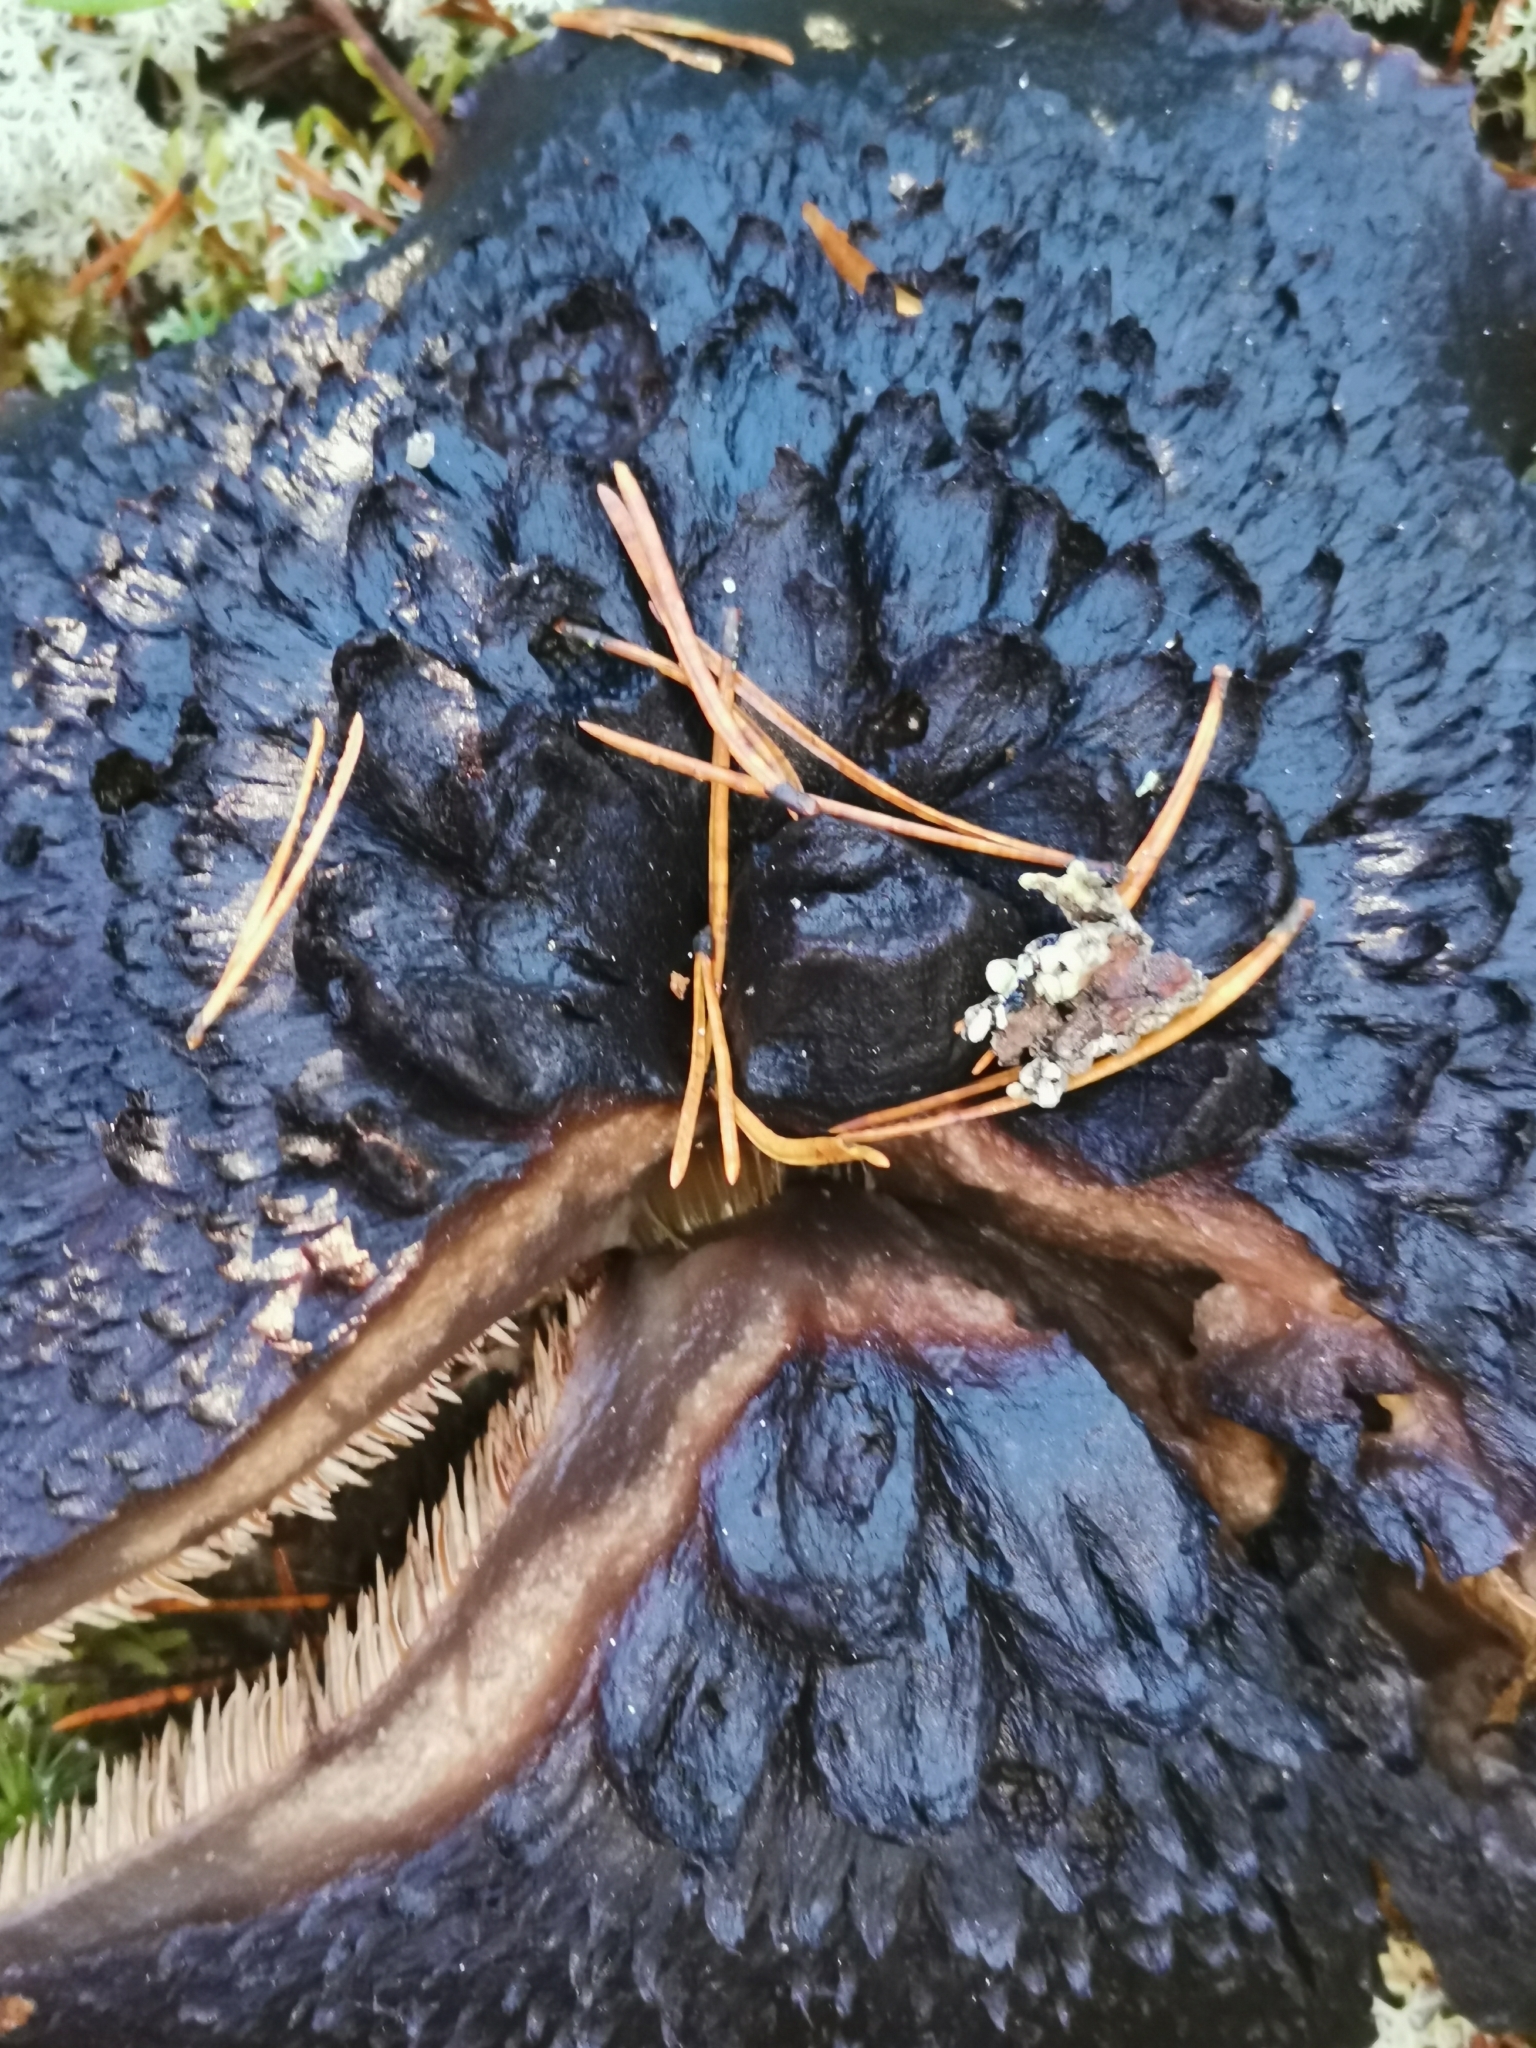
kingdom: Fungi
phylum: Basidiomycota
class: Agaricomycetes
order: Thelephorales
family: Bankeraceae
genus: Sarcodon
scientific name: Sarcodon squamosus
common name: Scaly tooth
